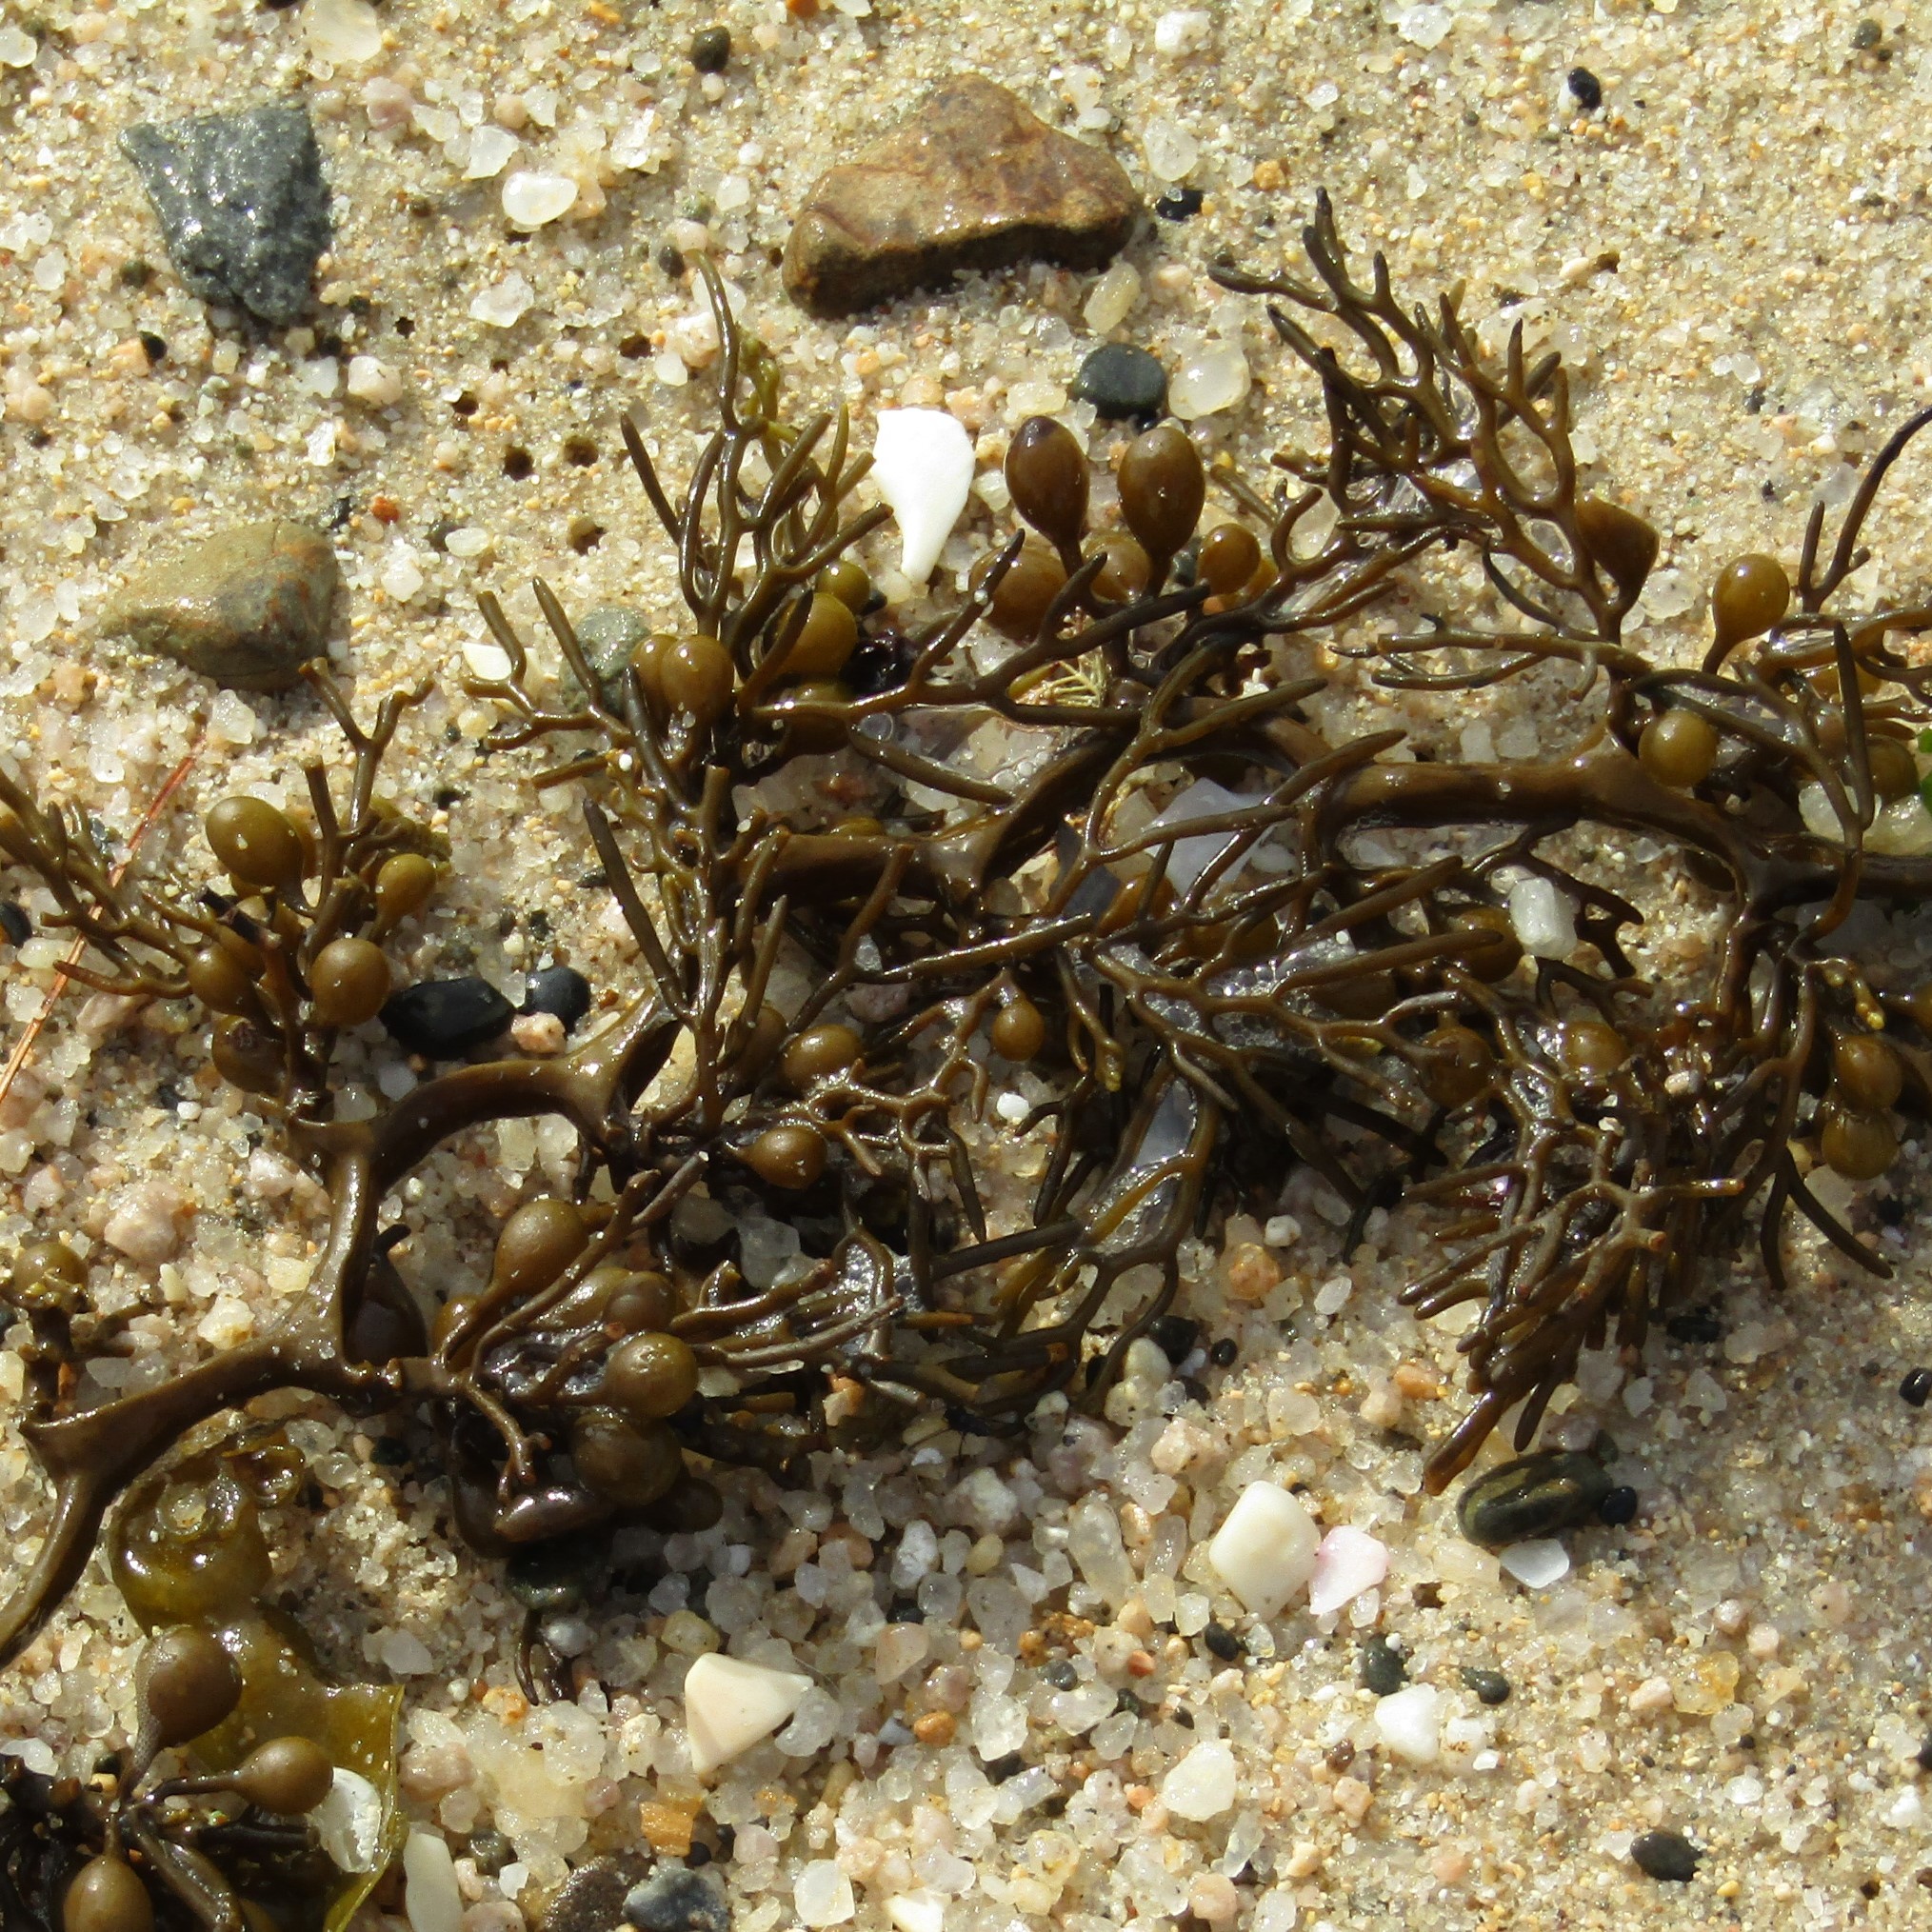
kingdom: Chromista
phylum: Ochrophyta
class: Phaeophyceae
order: Fucales
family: Sargassaceae
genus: Cystophora
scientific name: Cystophora scalaris
